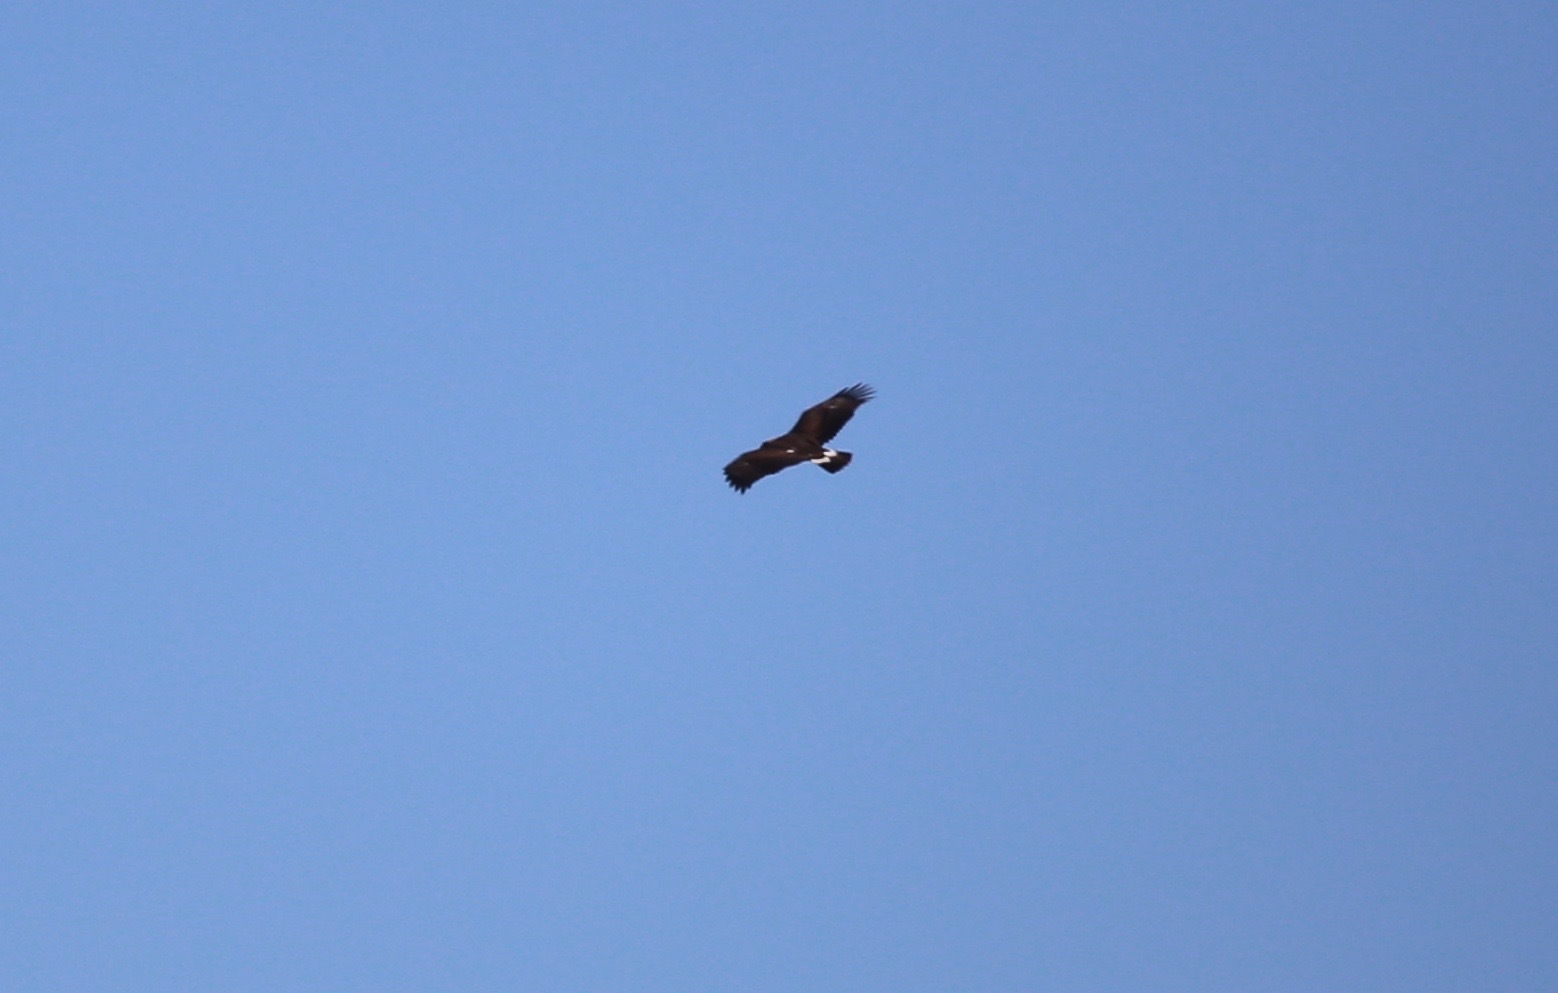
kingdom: Animalia
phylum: Chordata
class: Aves
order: Accipitriformes
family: Accipitridae
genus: Aquila
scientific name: Aquila chrysaetos
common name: Golden eagle
